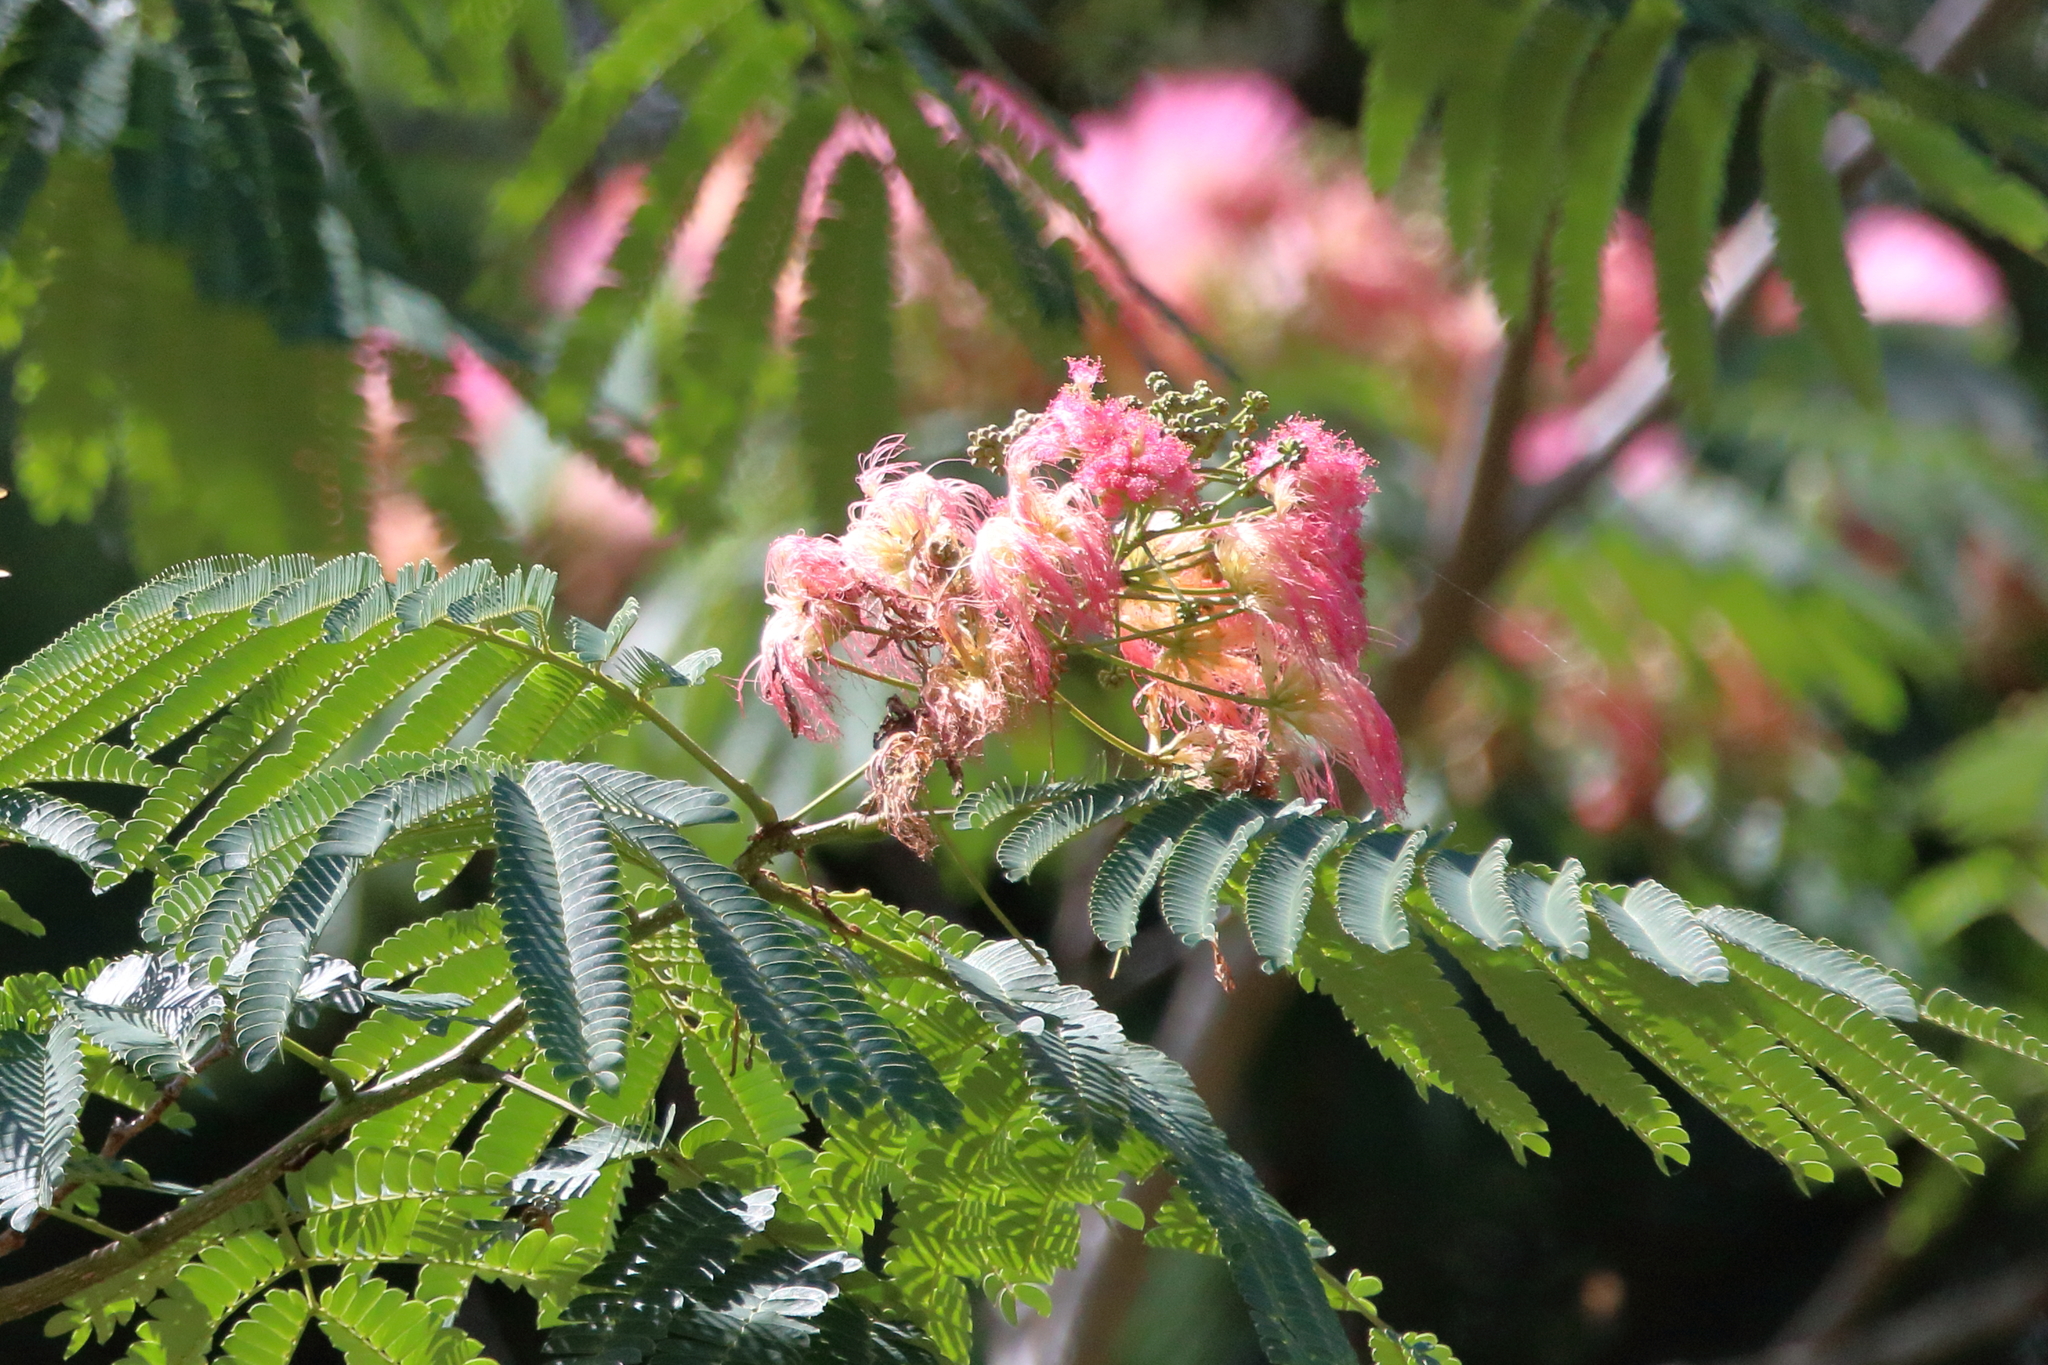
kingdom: Plantae
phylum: Tracheophyta
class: Magnoliopsida
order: Fabales
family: Fabaceae
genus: Albizia
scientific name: Albizia julibrissin
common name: Silktree
